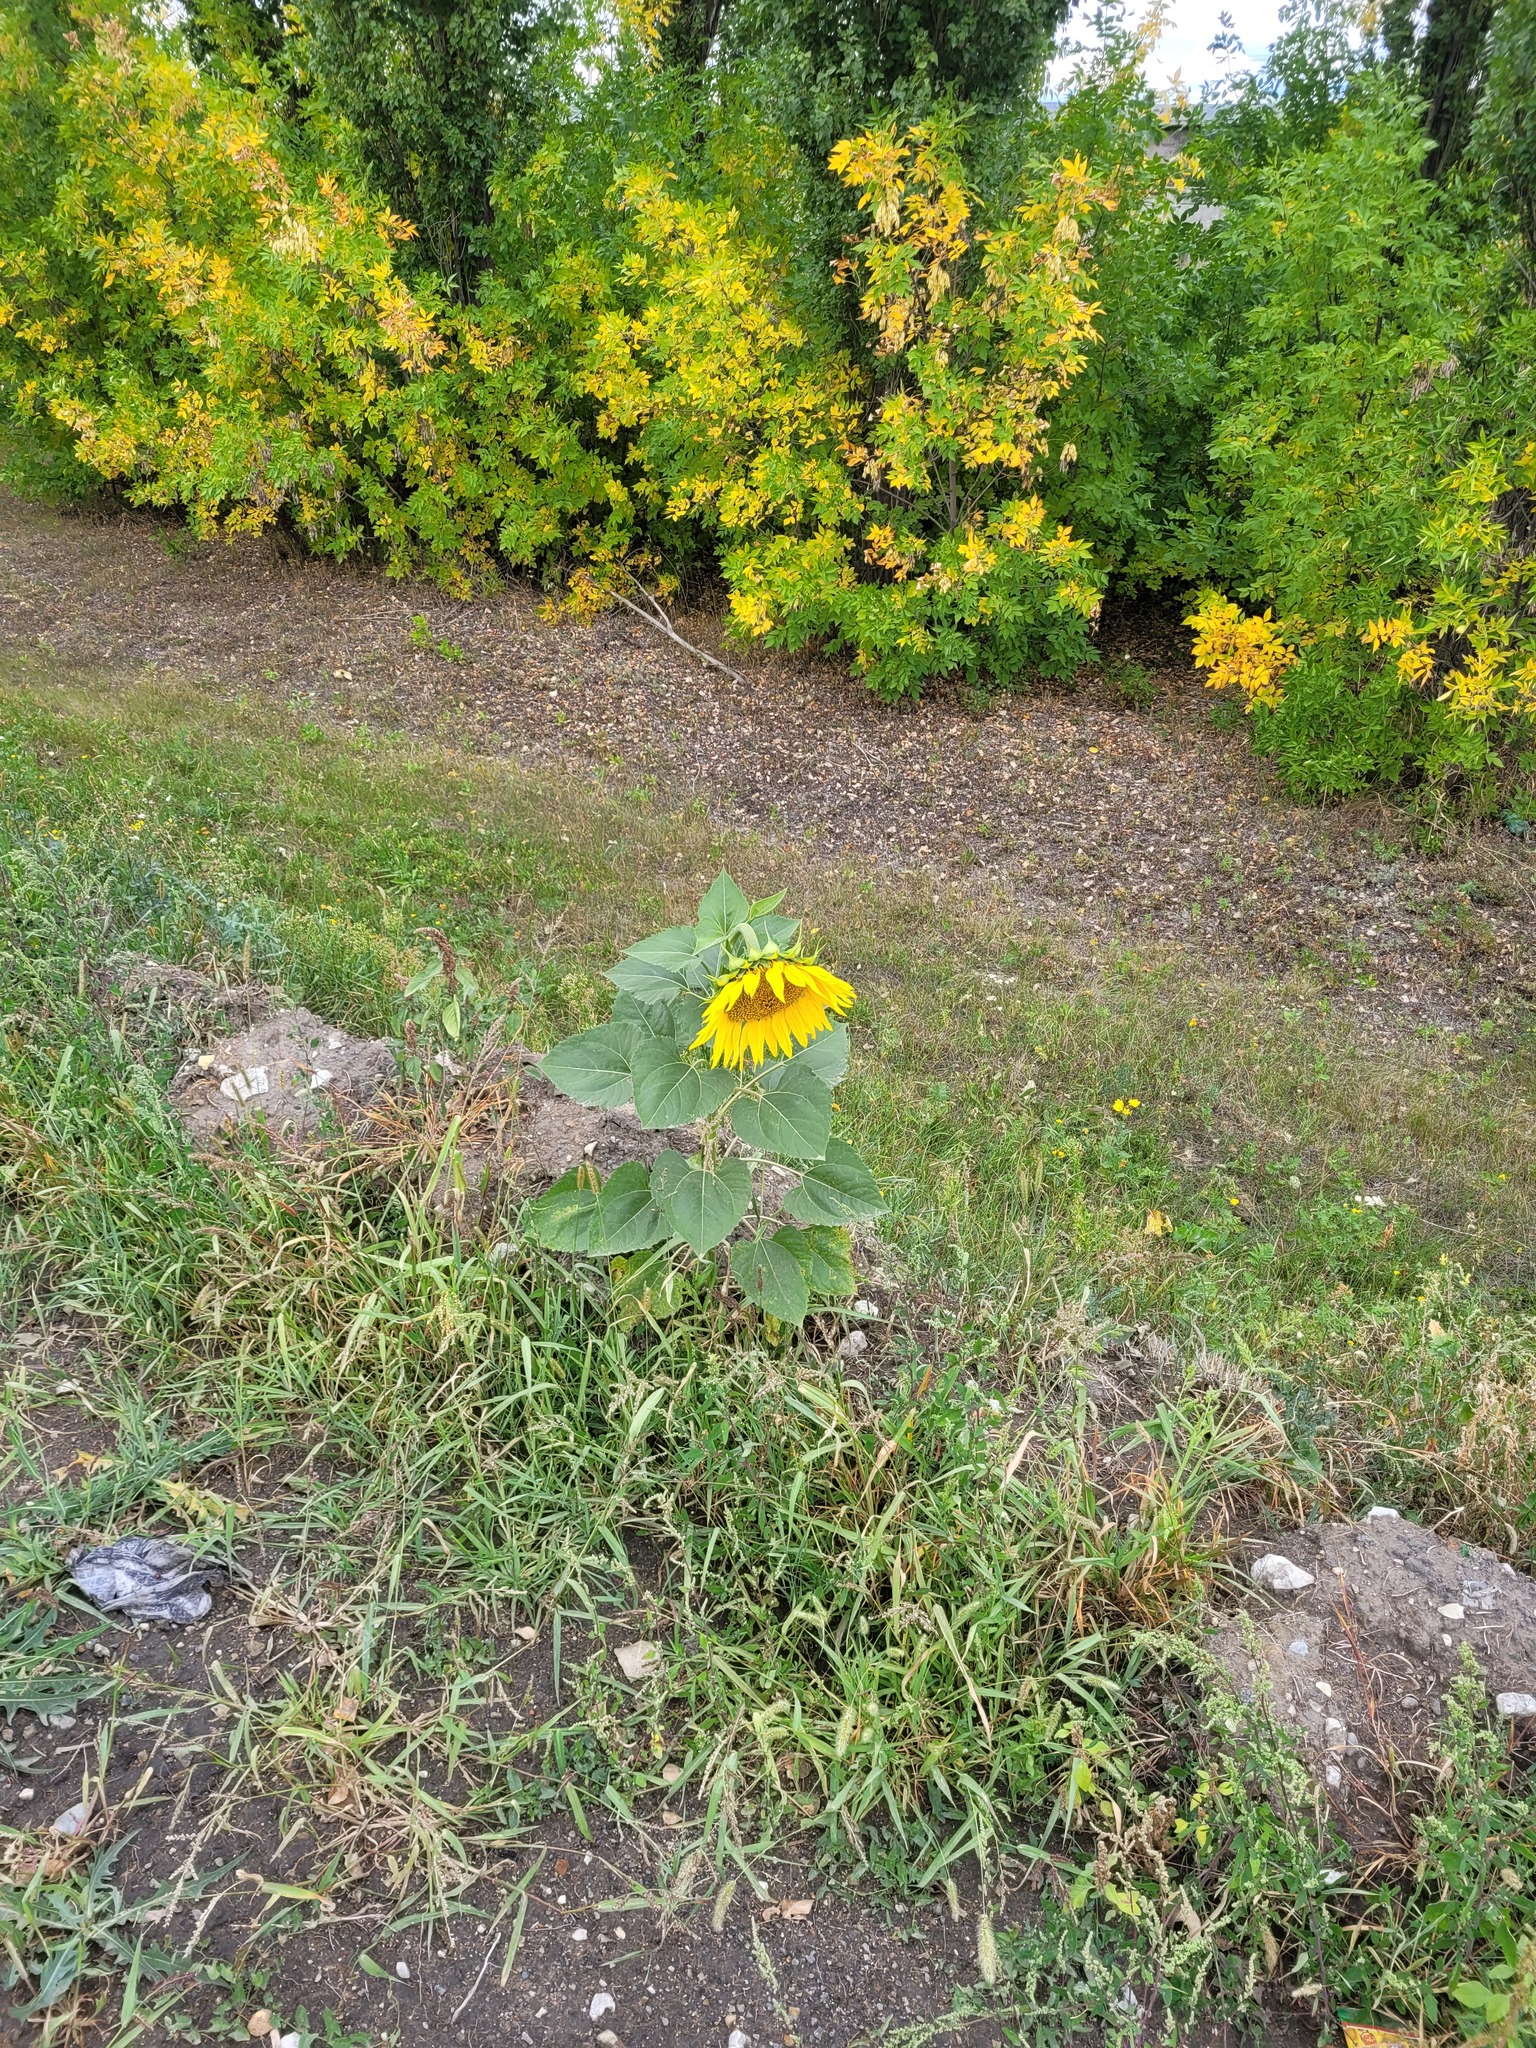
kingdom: Plantae
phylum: Tracheophyta
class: Magnoliopsida
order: Asterales
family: Asteraceae
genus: Helianthus
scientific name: Helianthus annuus
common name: Sunflower
